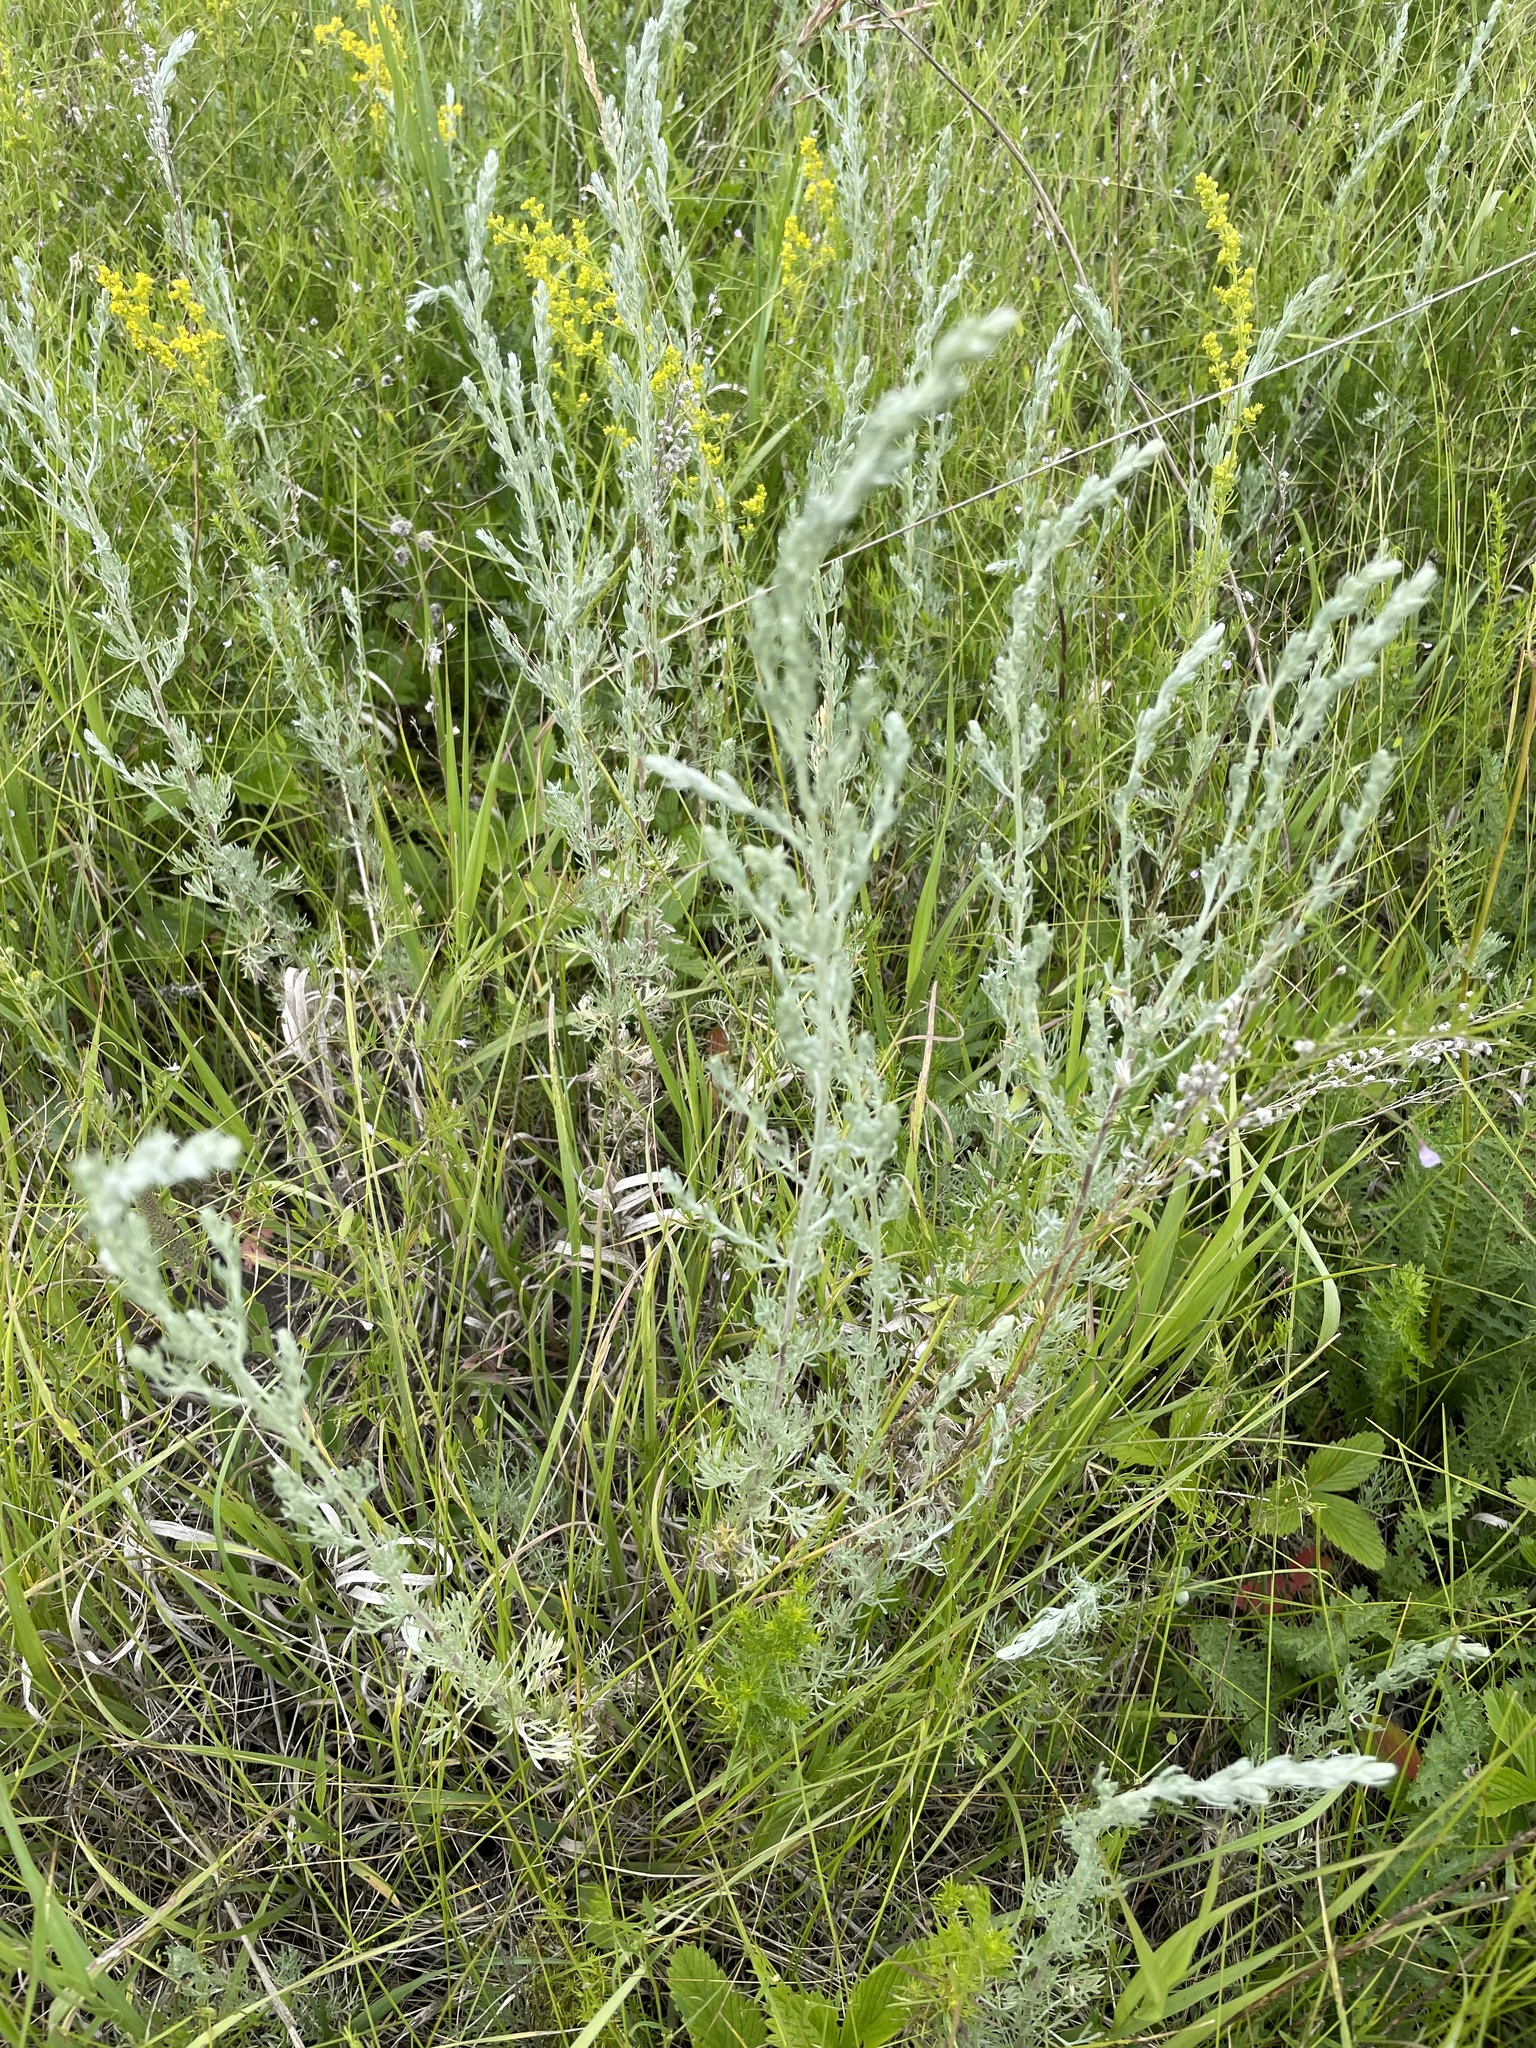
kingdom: Plantae
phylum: Tracheophyta
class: Magnoliopsida
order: Asterales
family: Asteraceae
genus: Artemisia
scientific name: Artemisia austriaca
